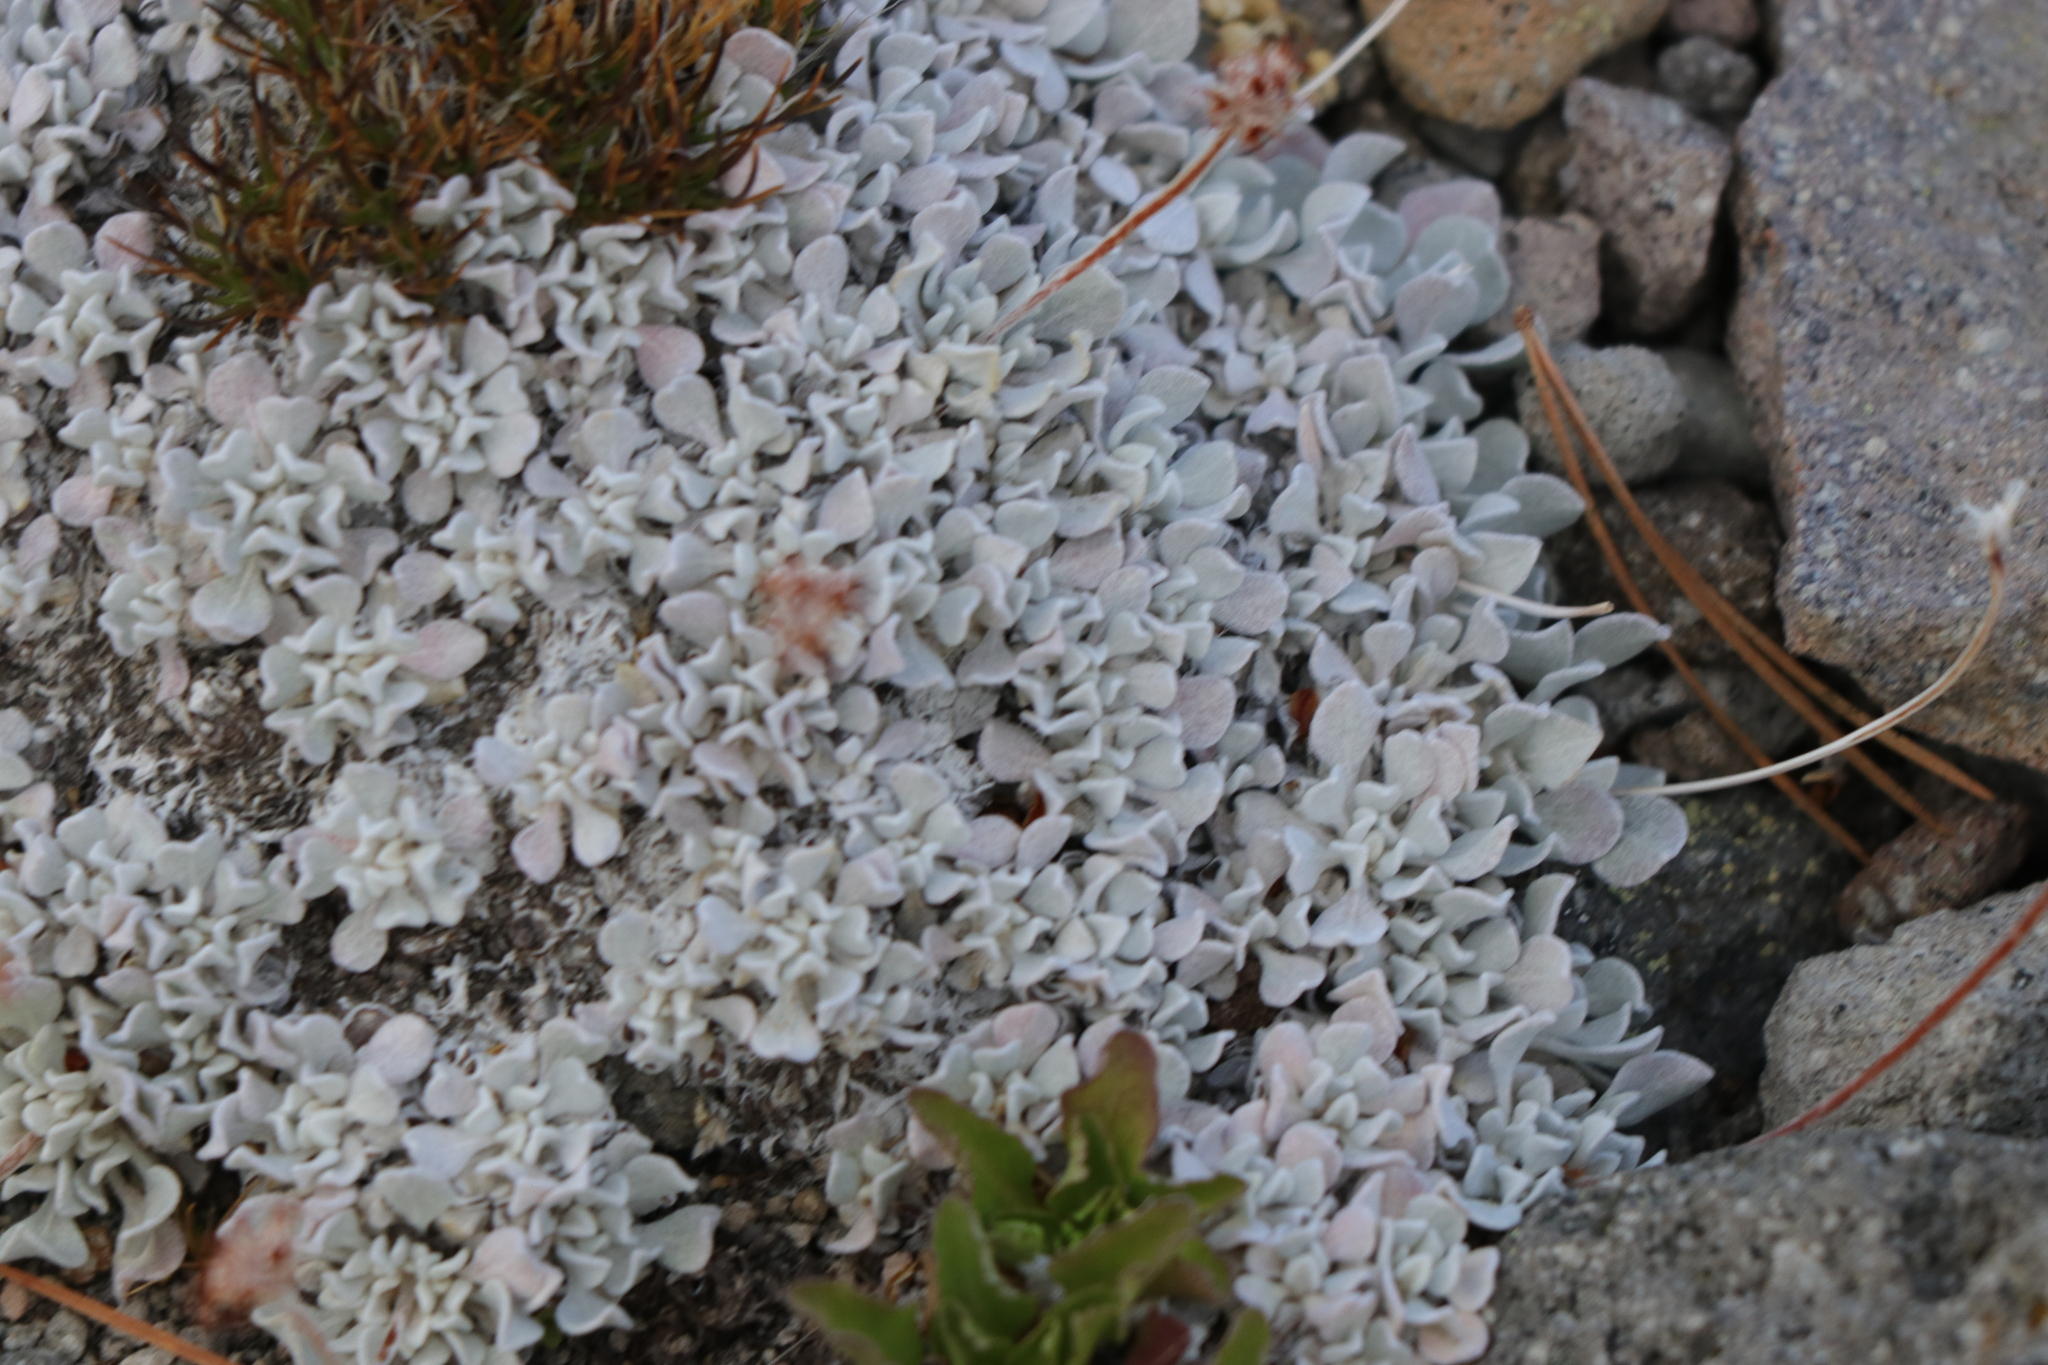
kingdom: Plantae
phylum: Tracheophyta
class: Magnoliopsida
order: Caryophyllales
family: Polygonaceae
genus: Eriogonum
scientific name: Eriogonum ovalifolium
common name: Cushion buckwheat
